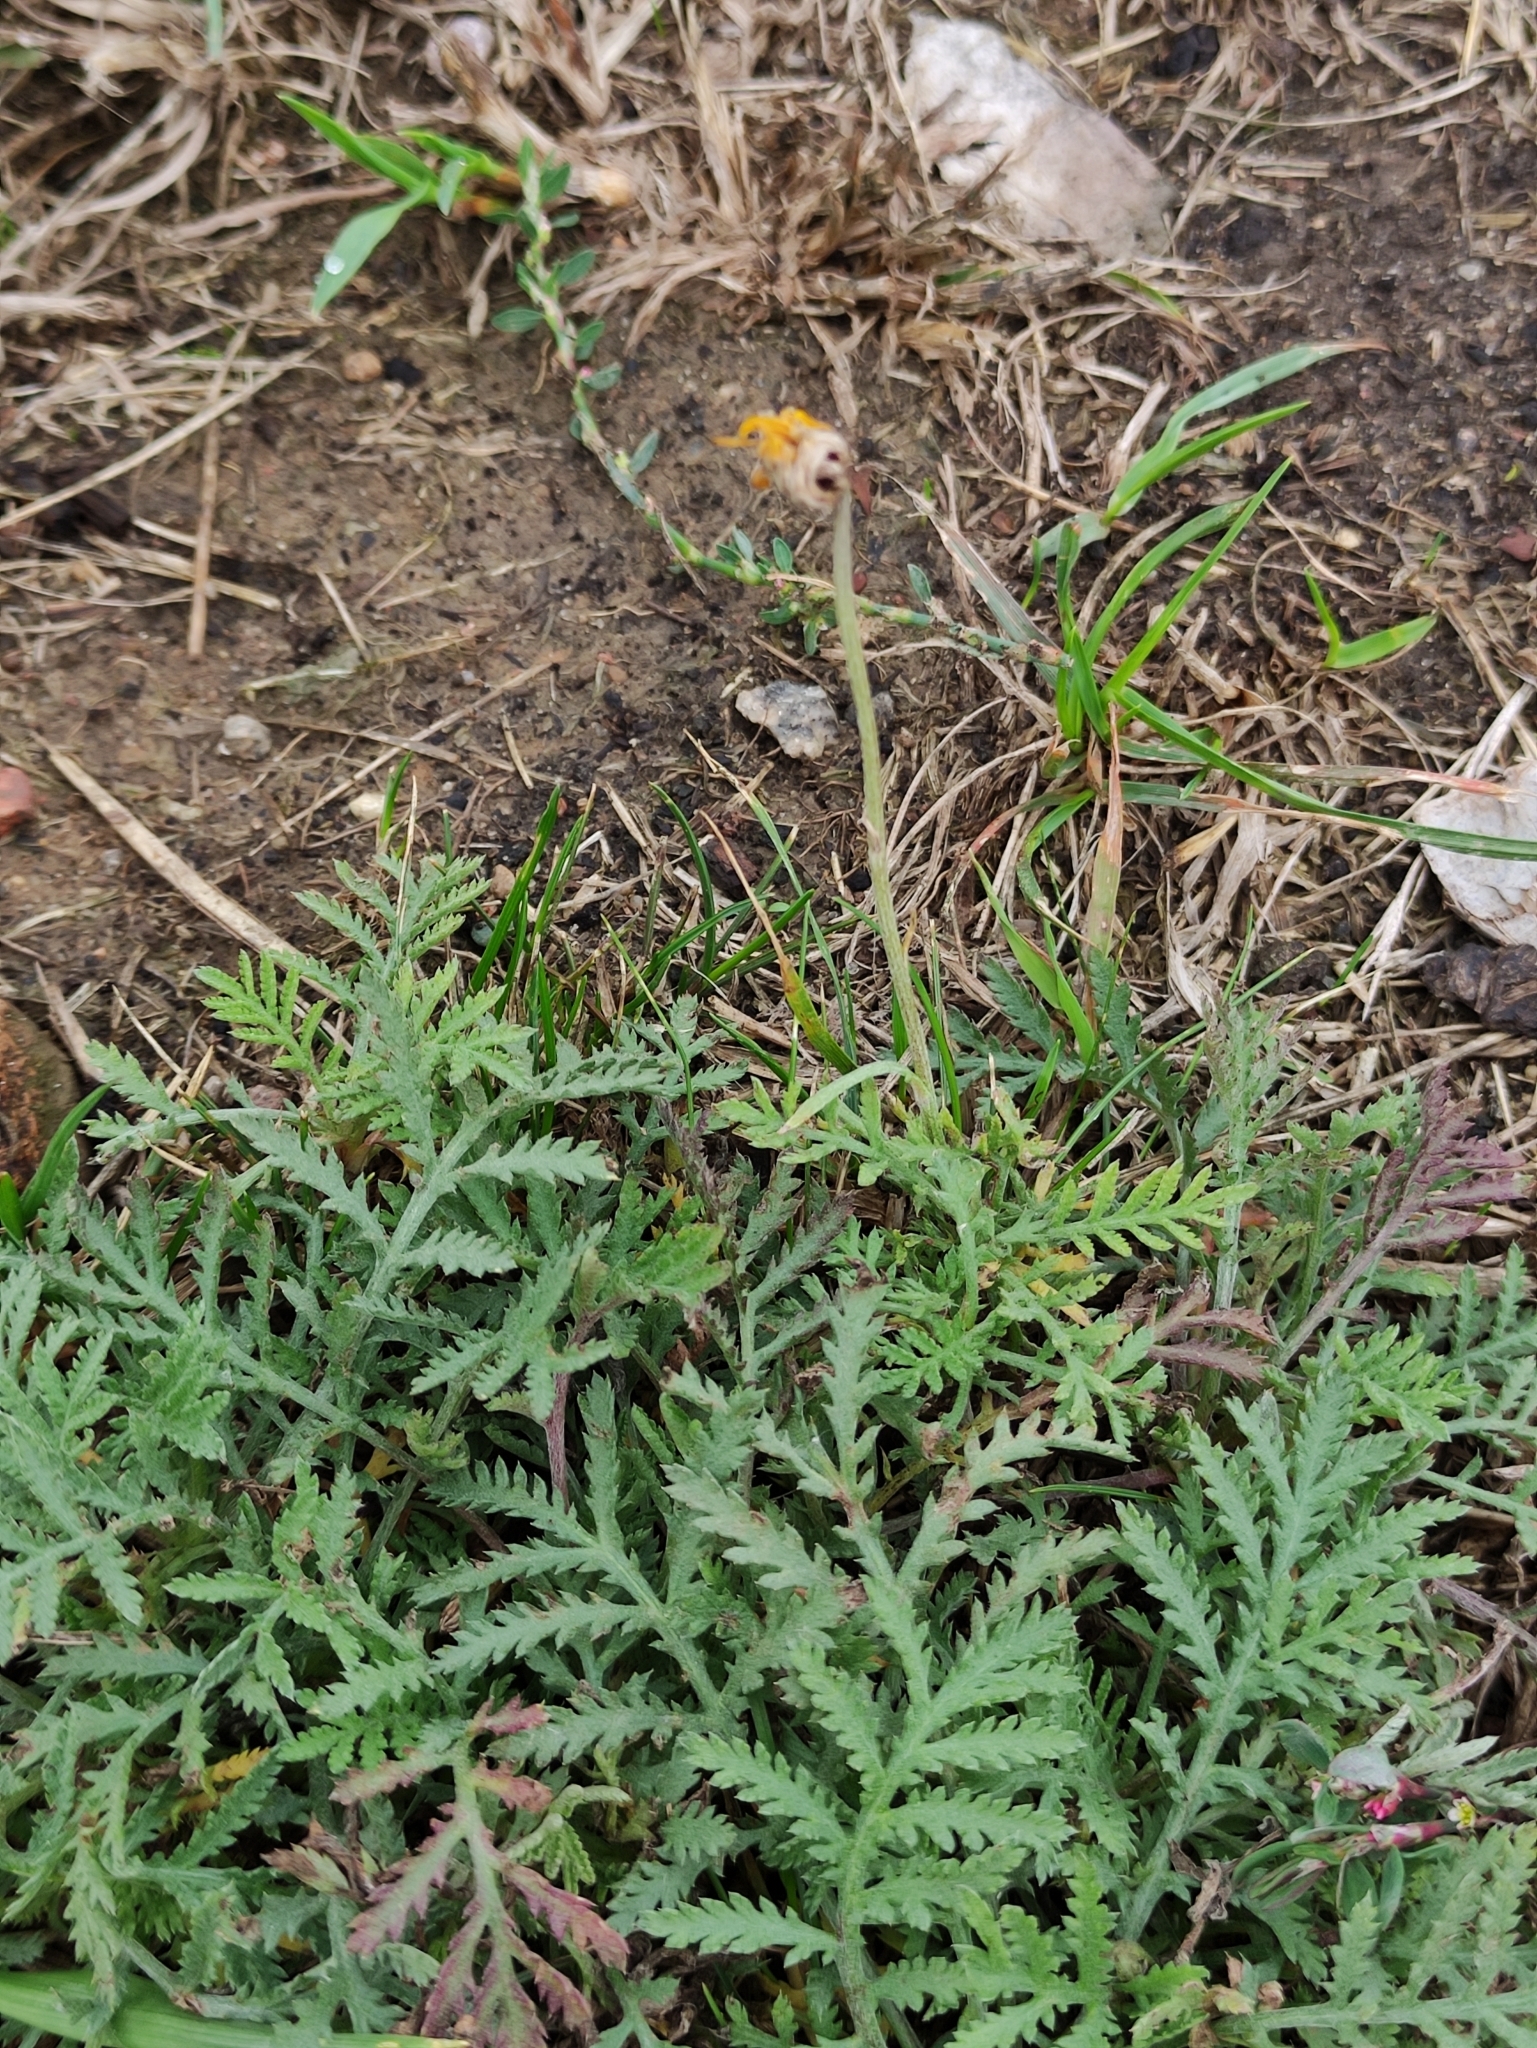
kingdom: Plantae
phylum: Tracheophyta
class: Magnoliopsida
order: Asterales
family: Asteraceae
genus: Cota
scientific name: Cota tinctoria
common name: Golden chamomile
